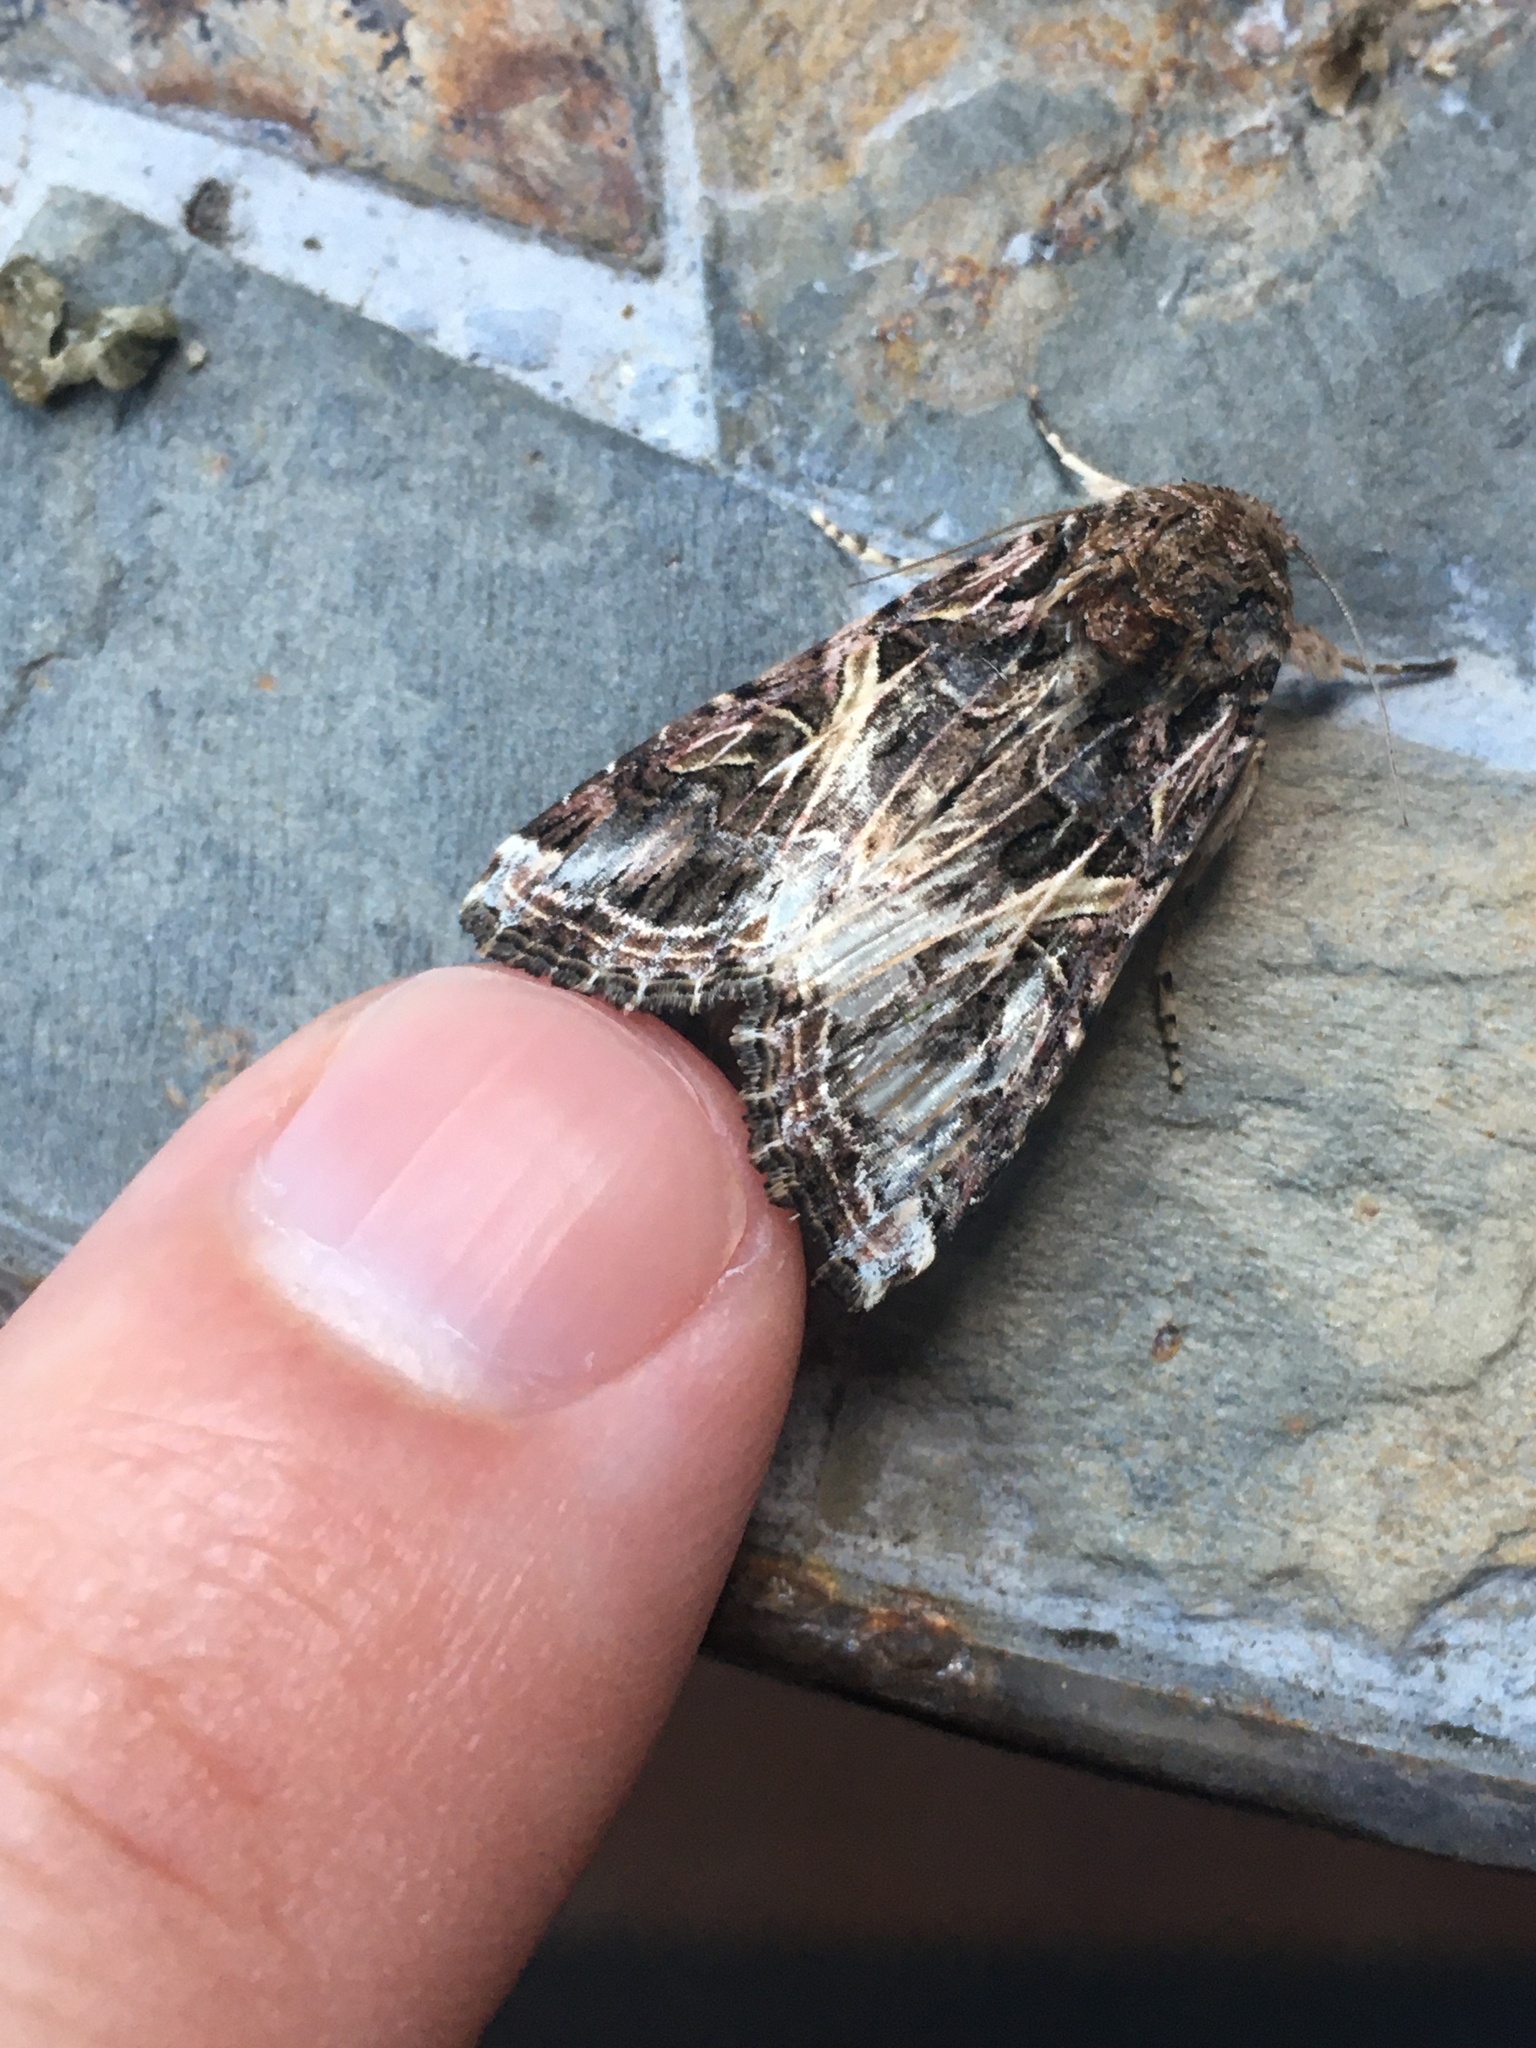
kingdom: Animalia
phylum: Arthropoda
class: Insecta
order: Lepidoptera
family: Noctuidae
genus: Spodoptera
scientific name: Spodoptera ornithogalli
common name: Yellow-striped armyworm
